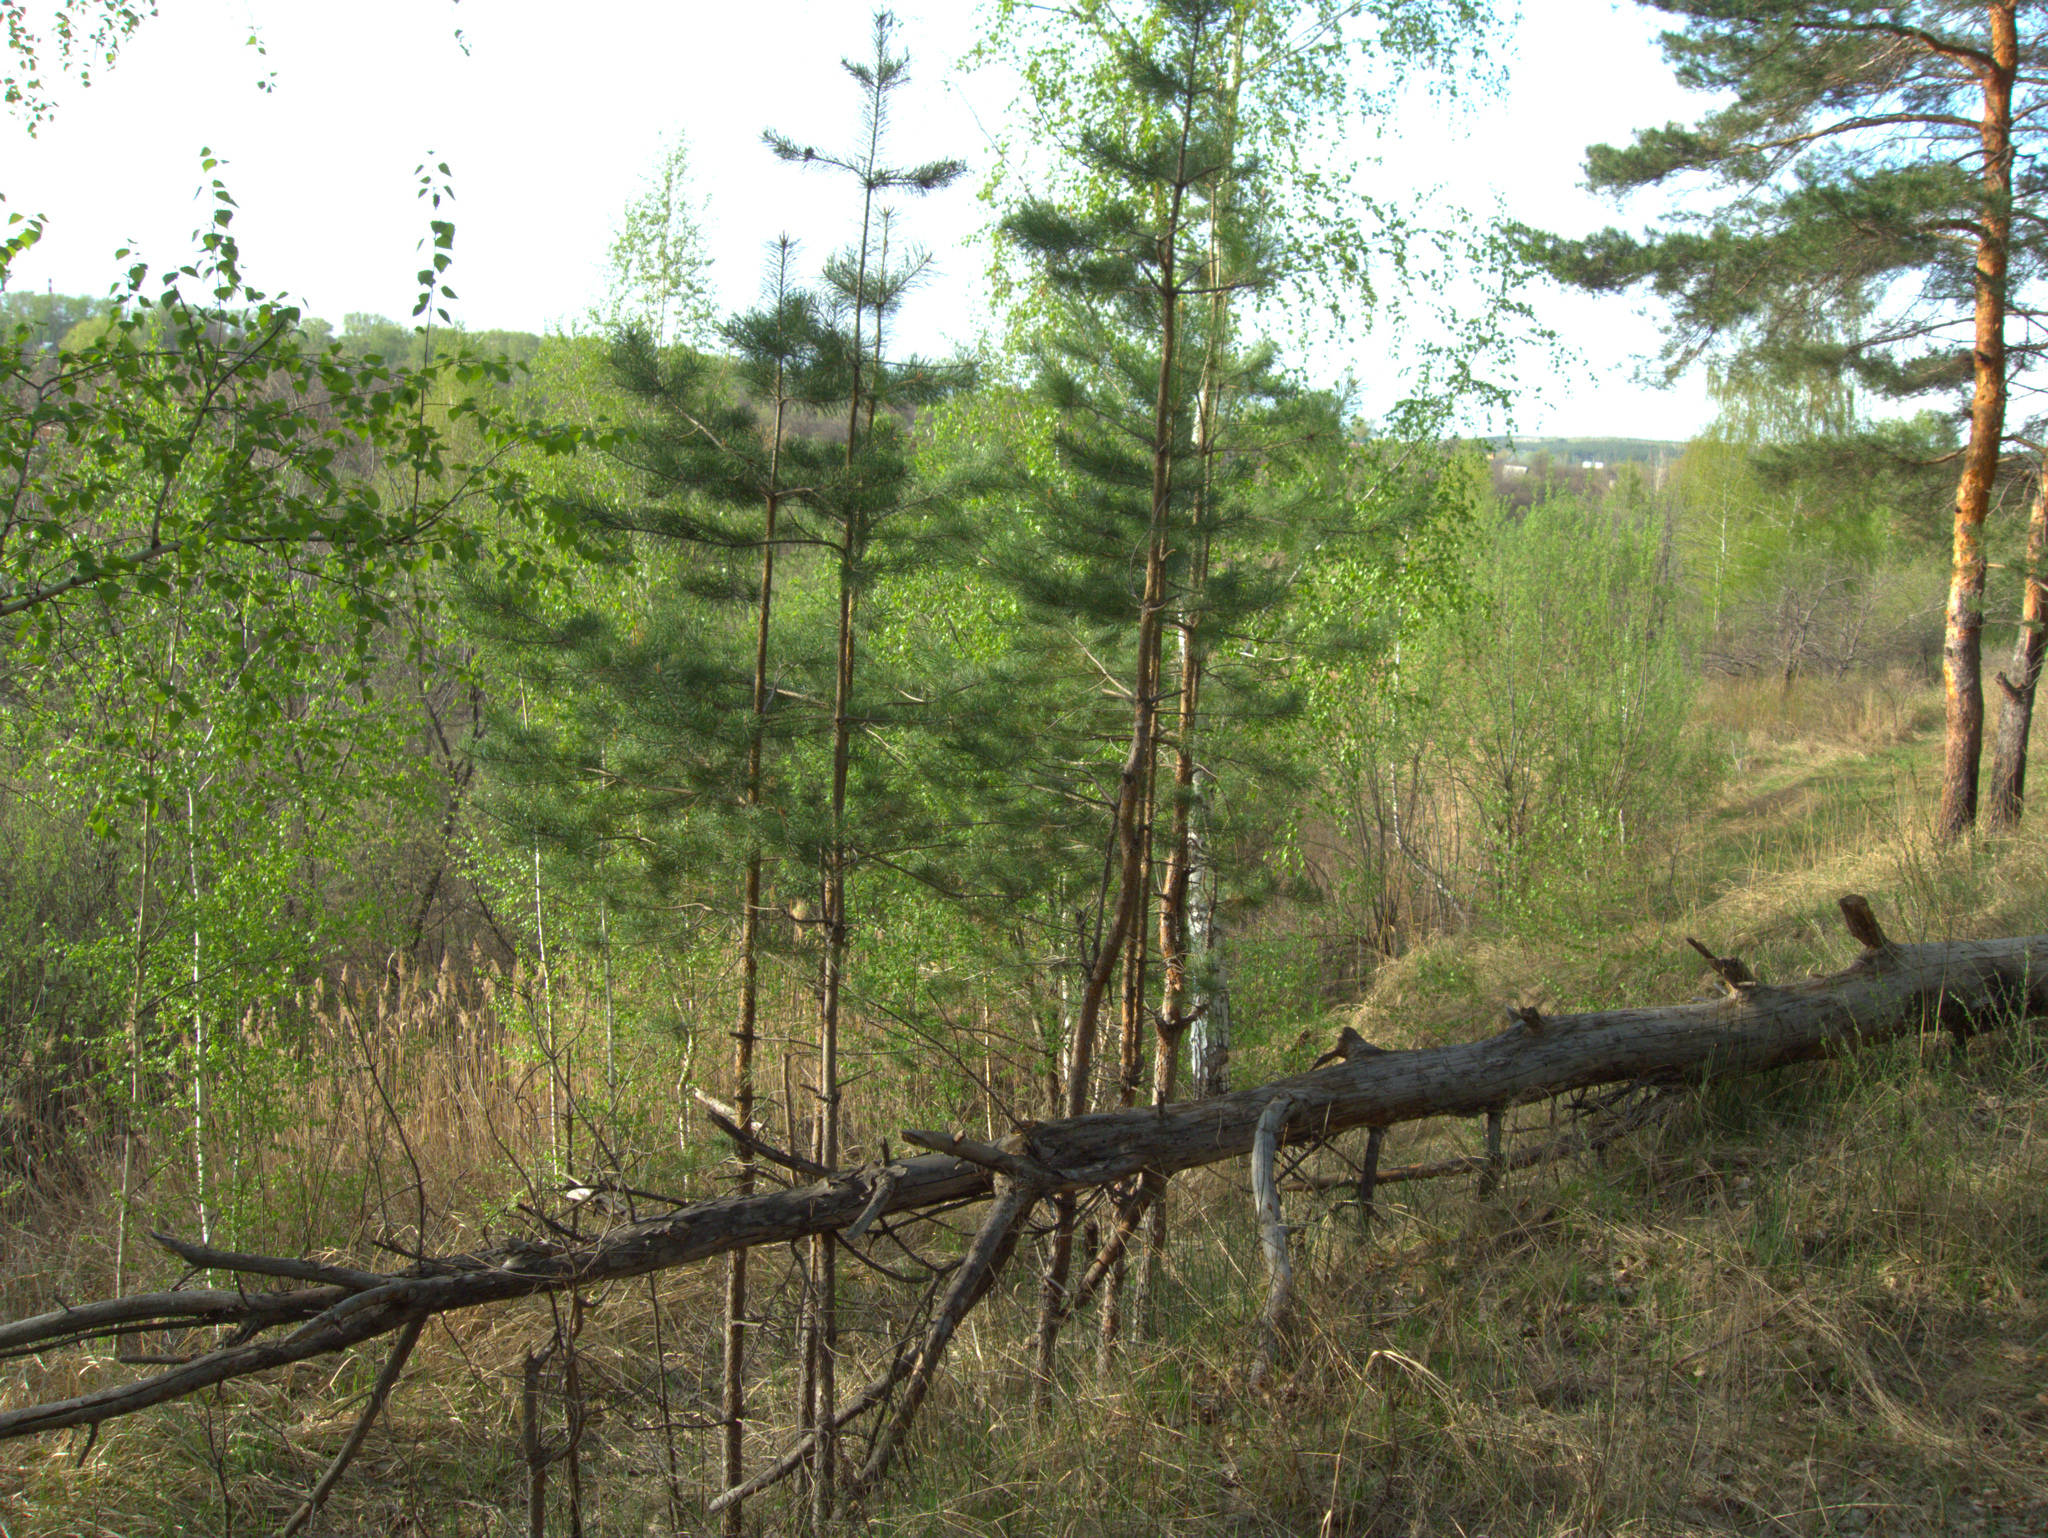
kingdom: Plantae
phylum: Tracheophyta
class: Pinopsida
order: Pinales
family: Pinaceae
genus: Pinus
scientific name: Pinus sylvestris
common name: Scots pine
